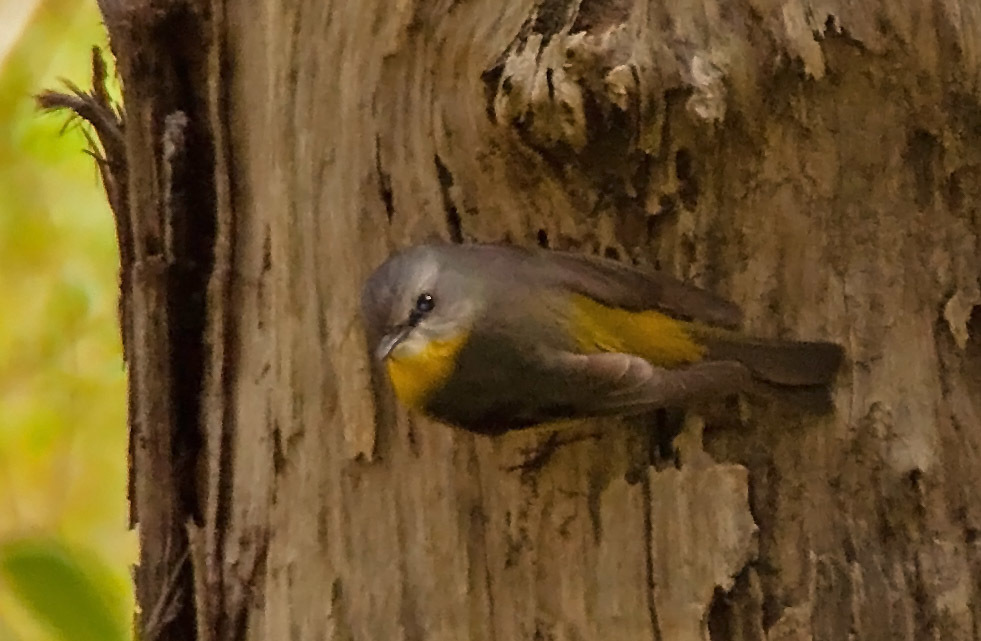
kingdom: Animalia
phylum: Chordata
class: Aves
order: Passeriformes
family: Petroicidae
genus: Eopsaltria
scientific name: Eopsaltria australis
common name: Eastern yellow robin
